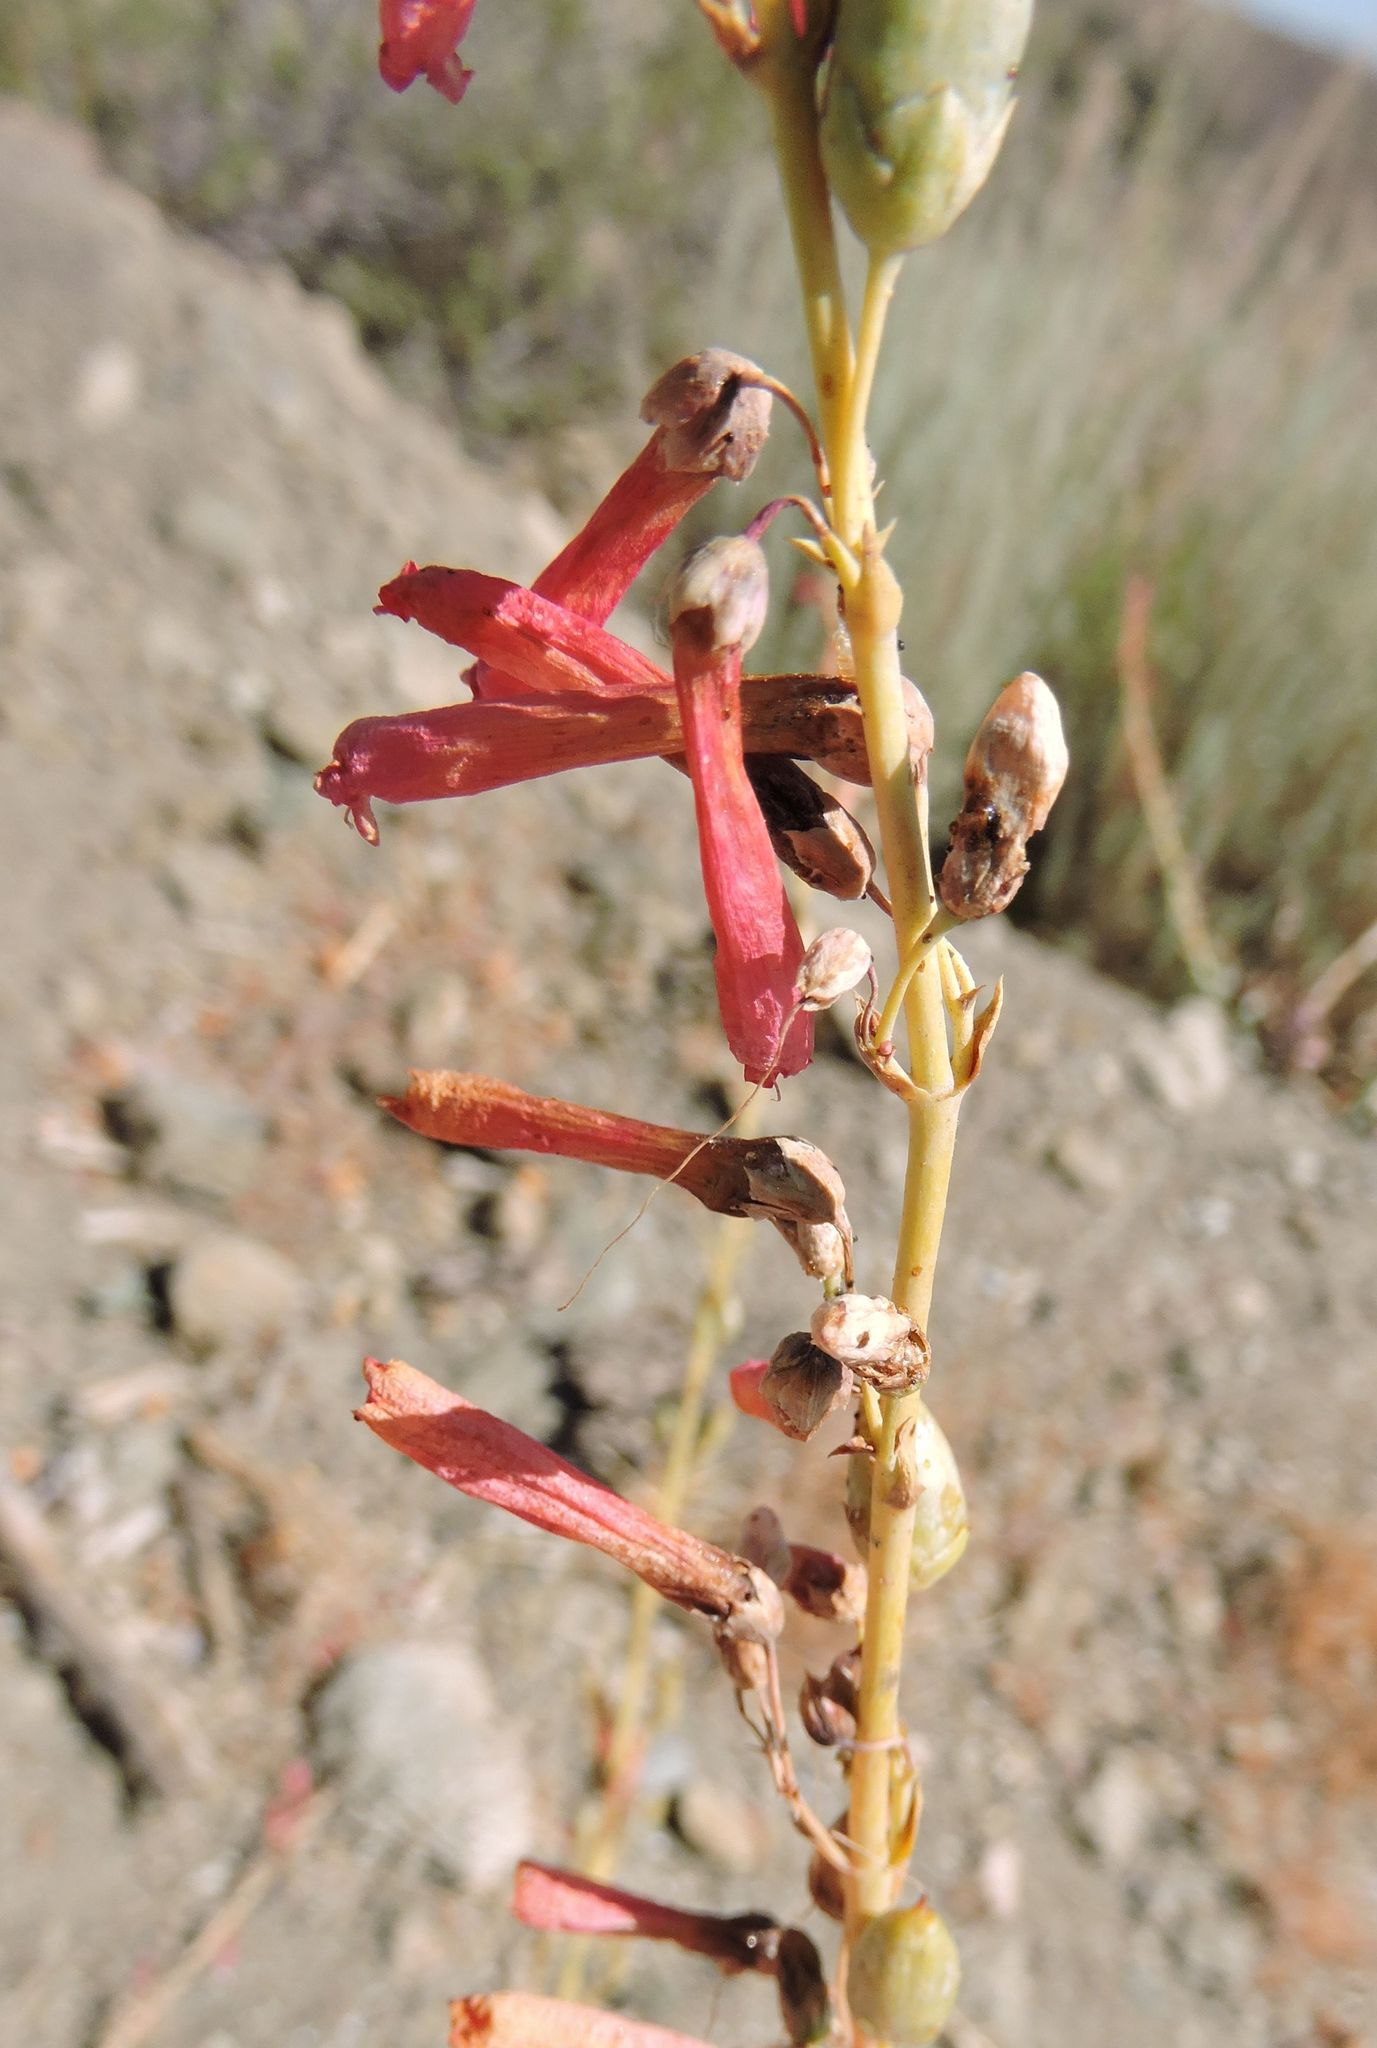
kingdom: Plantae
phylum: Tracheophyta
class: Magnoliopsida
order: Lamiales
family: Plantaginaceae
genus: Penstemon
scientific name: Penstemon centranthifolius
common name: Scarlet bugler
